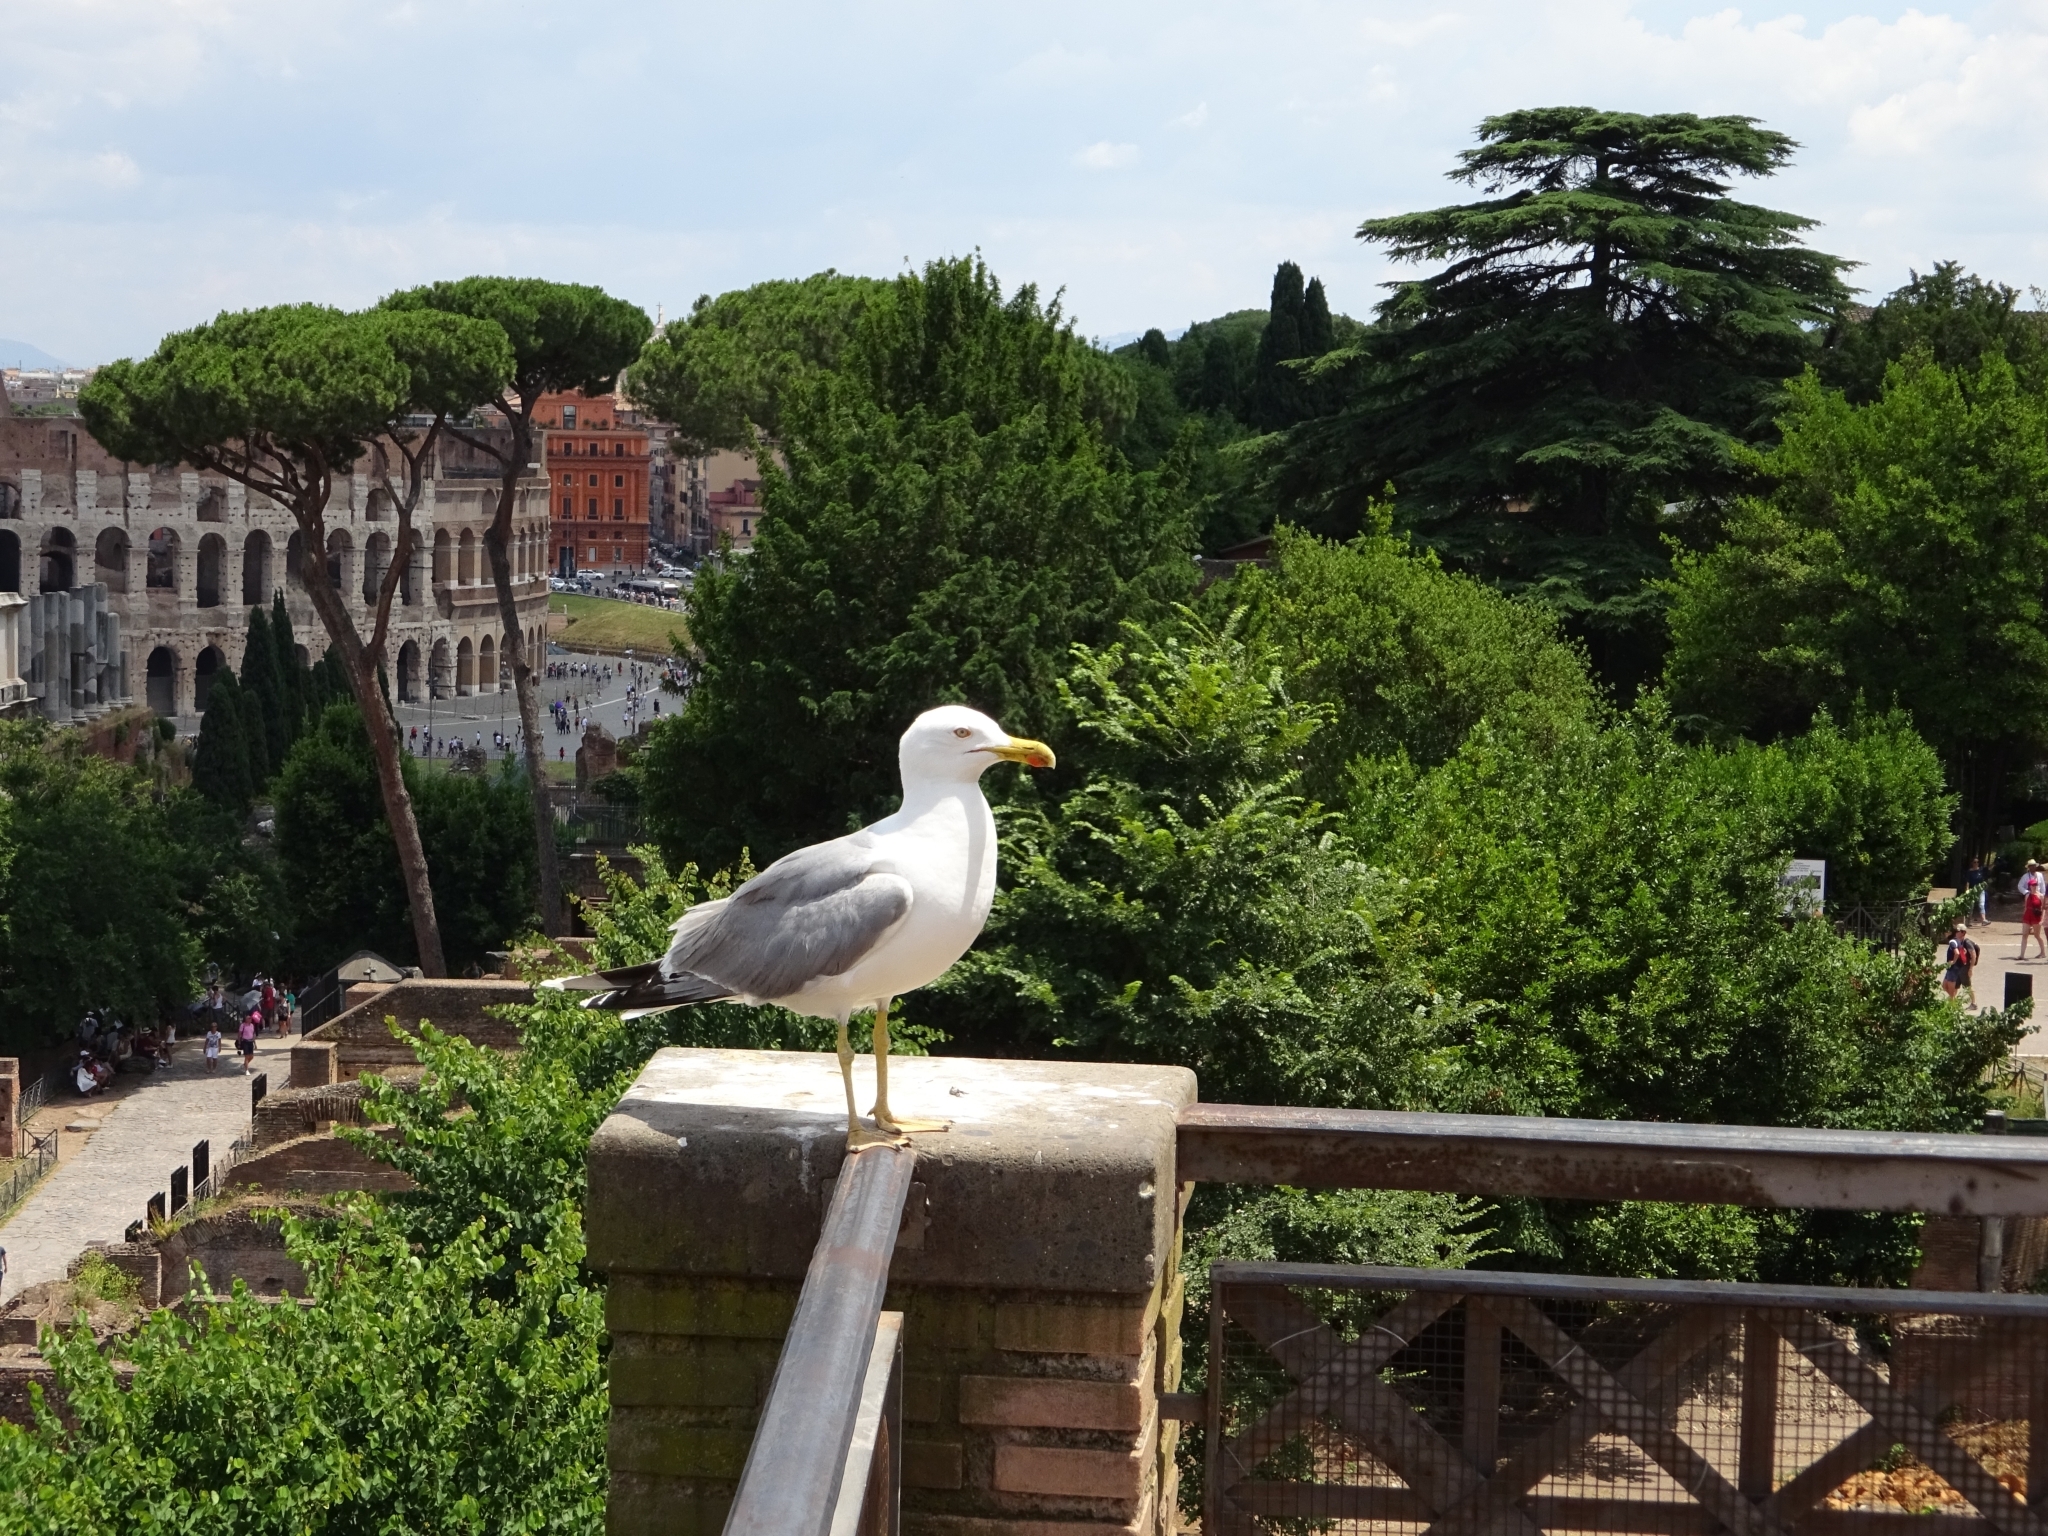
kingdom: Animalia
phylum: Chordata
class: Aves
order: Charadriiformes
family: Laridae
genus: Larus
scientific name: Larus michahellis
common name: Yellow-legged gull
